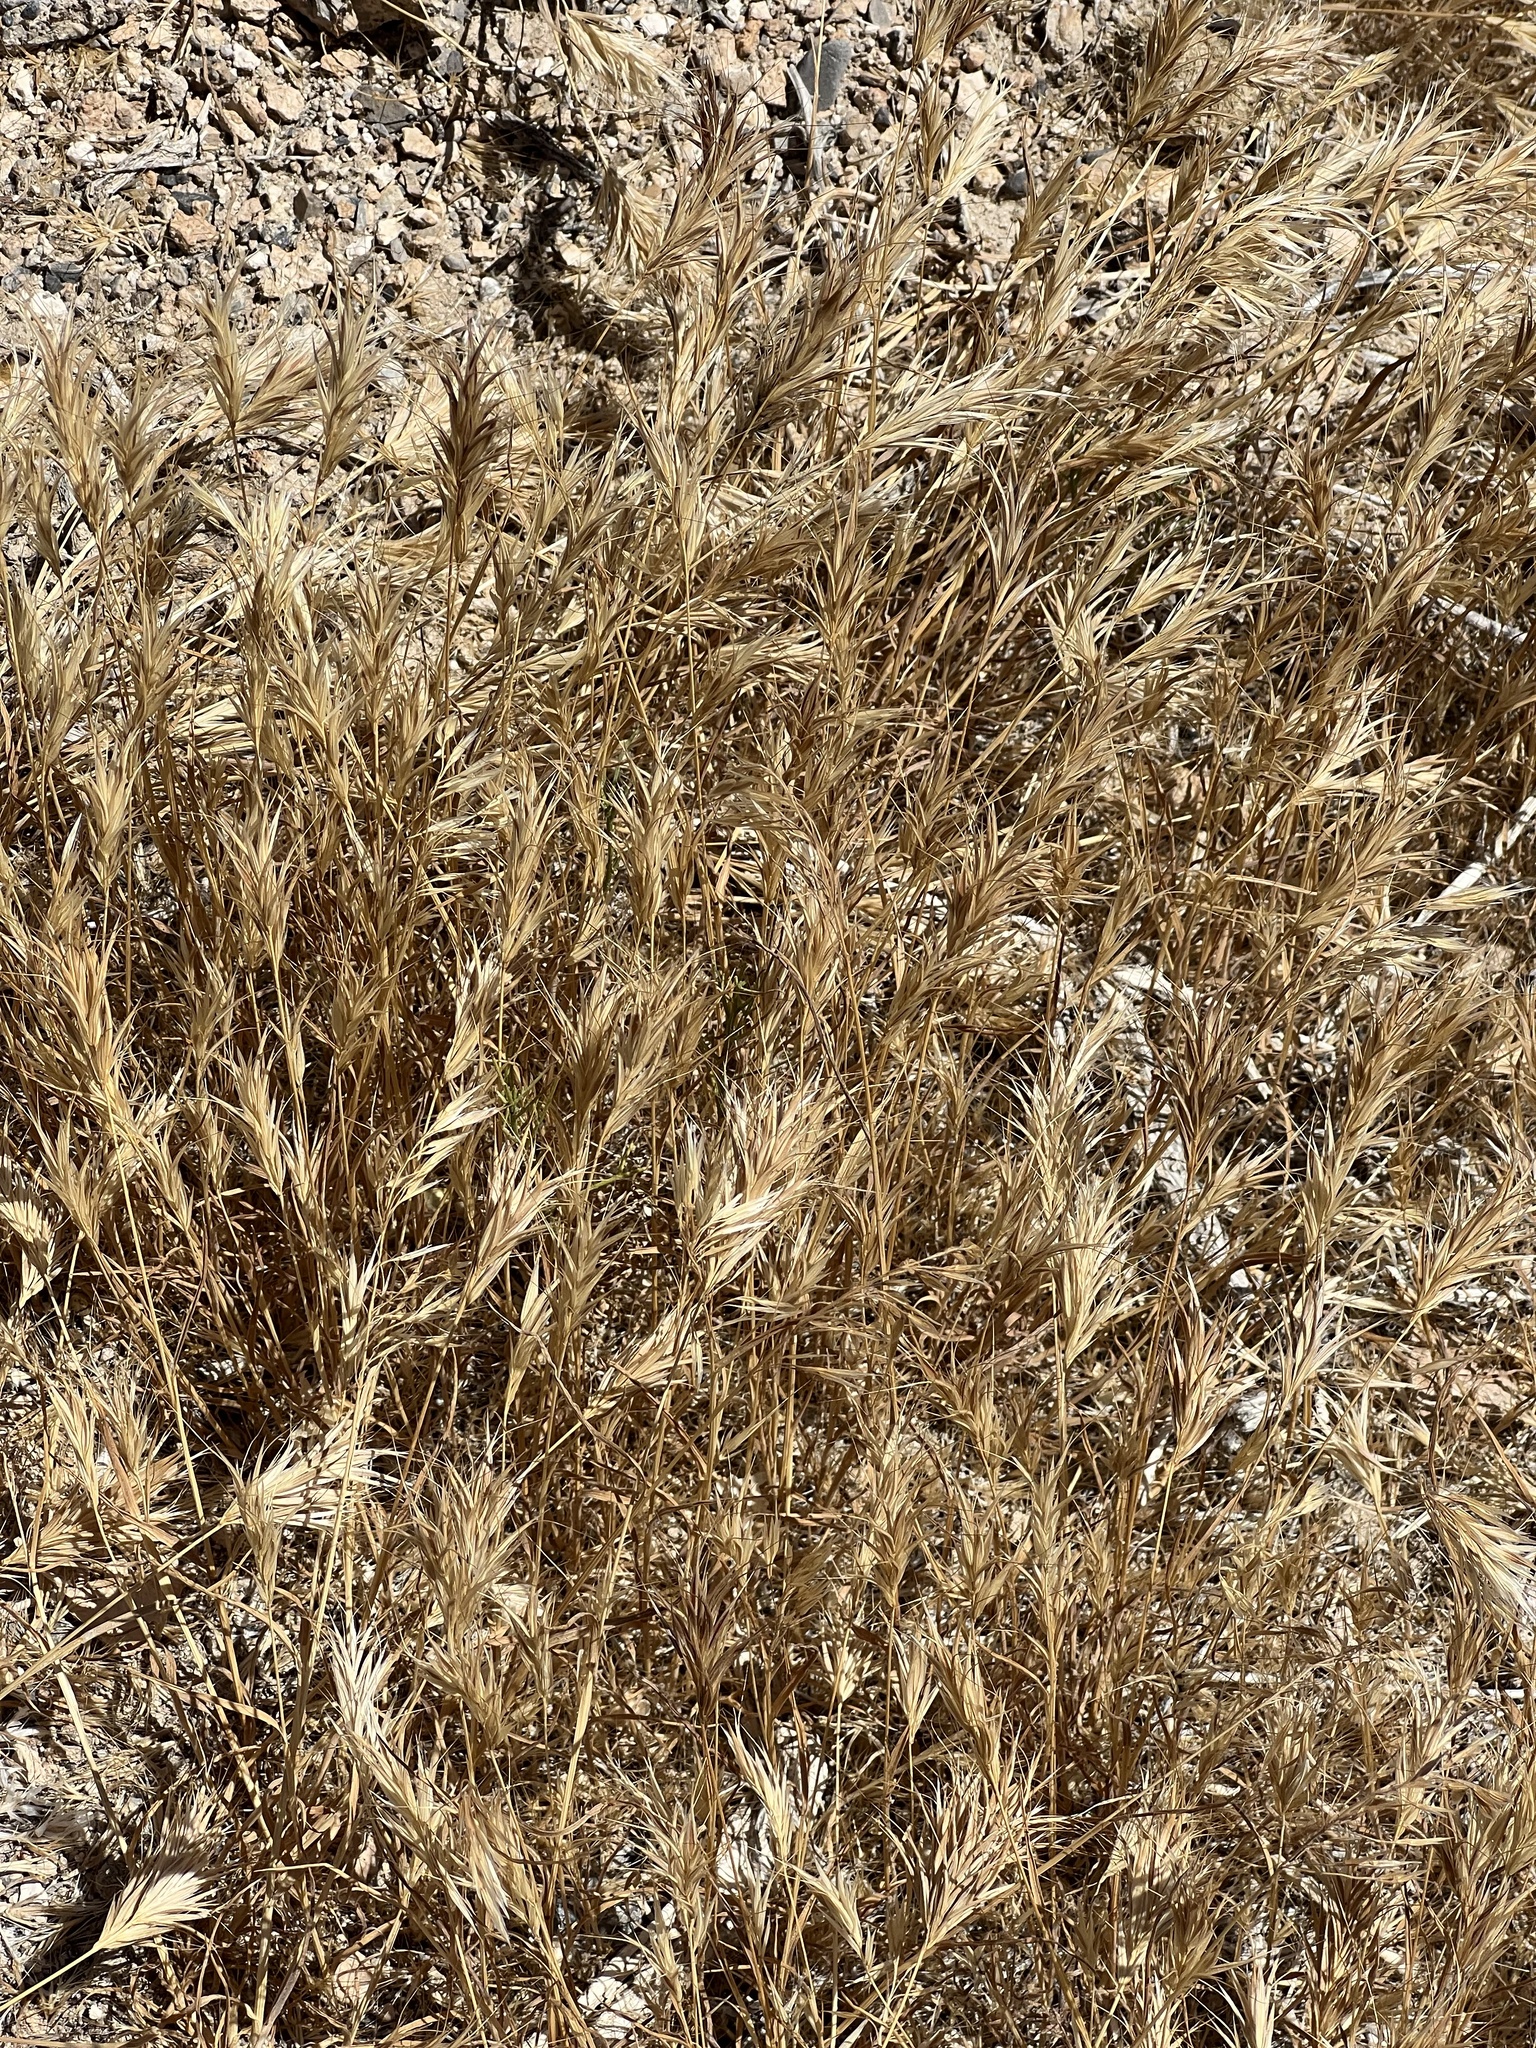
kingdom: Plantae
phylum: Tracheophyta
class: Liliopsida
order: Poales
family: Poaceae
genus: Bromus
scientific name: Bromus rubens
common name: Red brome
